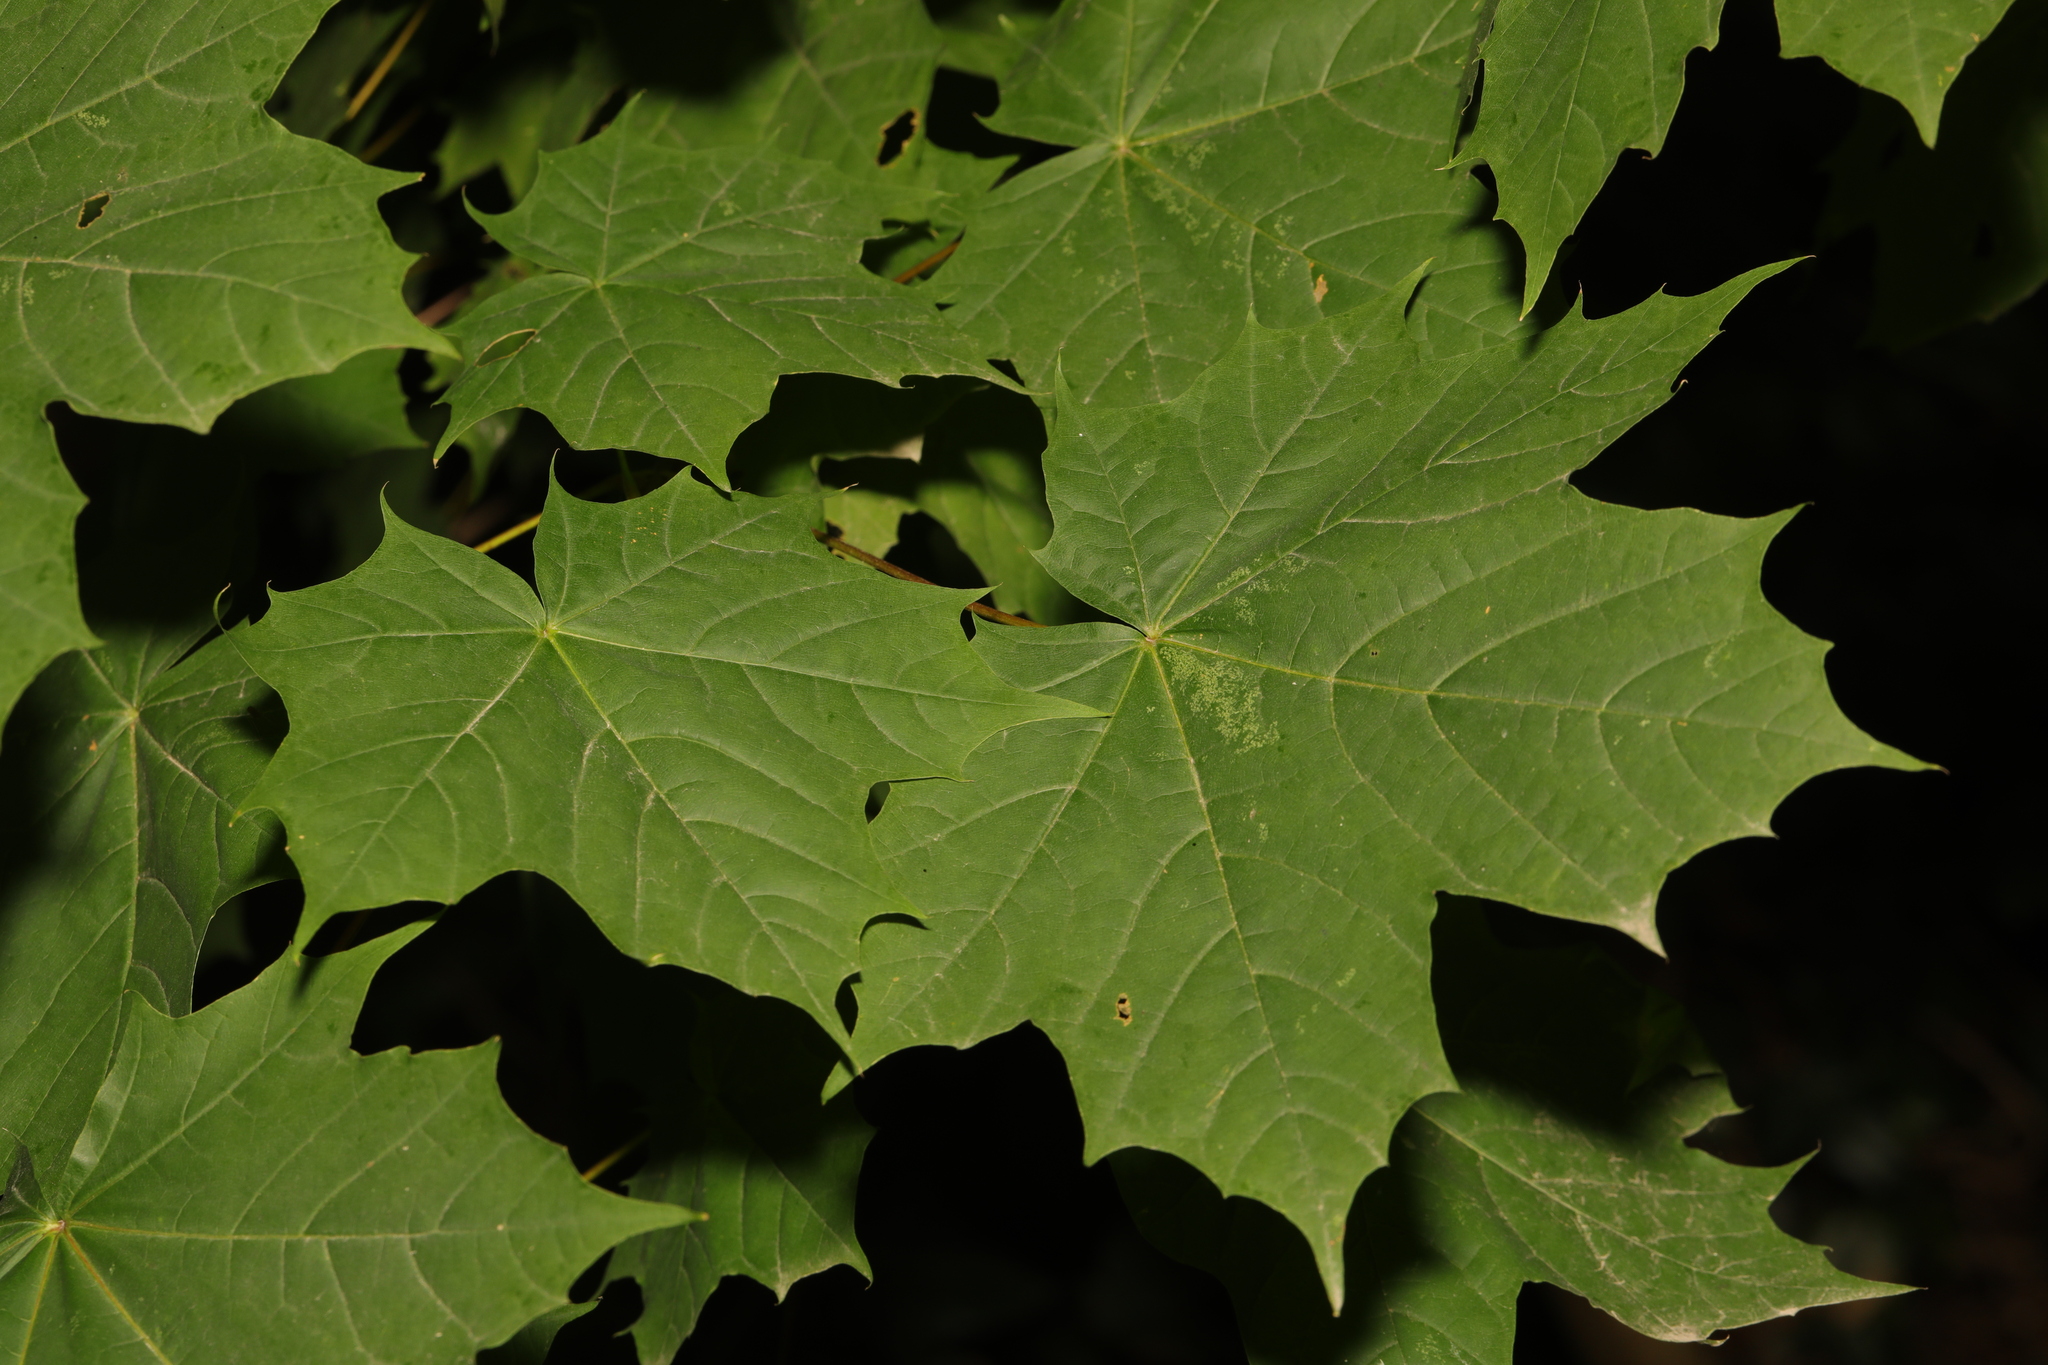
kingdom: Plantae
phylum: Tracheophyta
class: Magnoliopsida
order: Sapindales
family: Sapindaceae
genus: Acer
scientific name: Acer platanoides
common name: Norway maple
